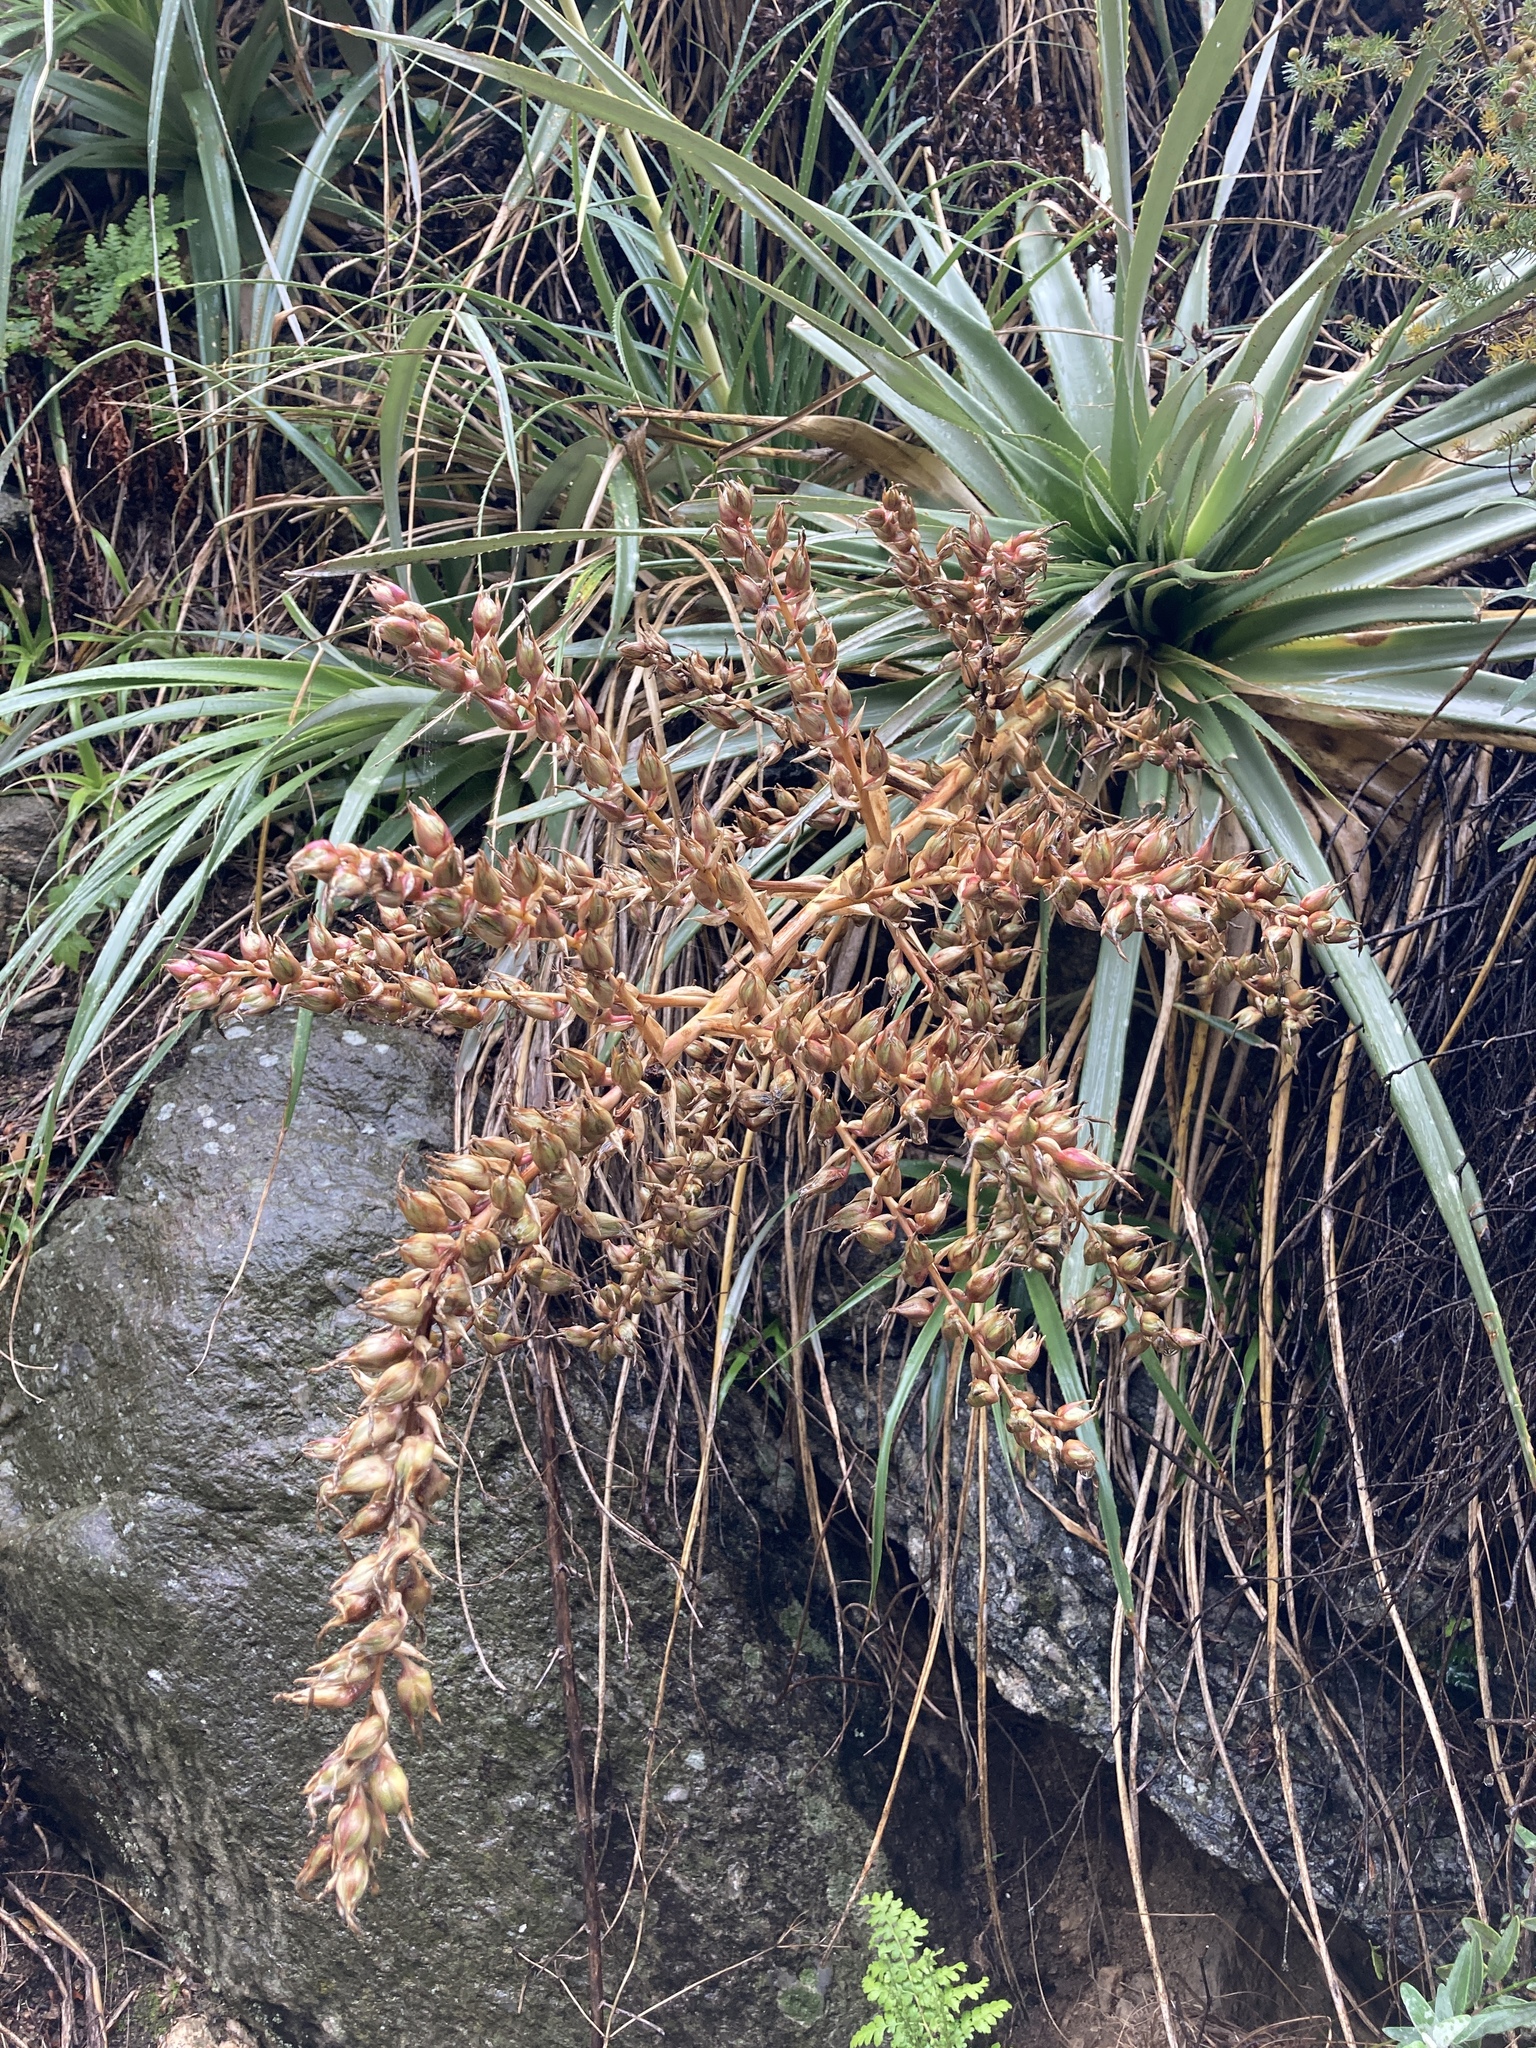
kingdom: Plantae
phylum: Tracheophyta
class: Liliopsida
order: Poales
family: Bromeliaceae
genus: Puya
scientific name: Puya spathacea
